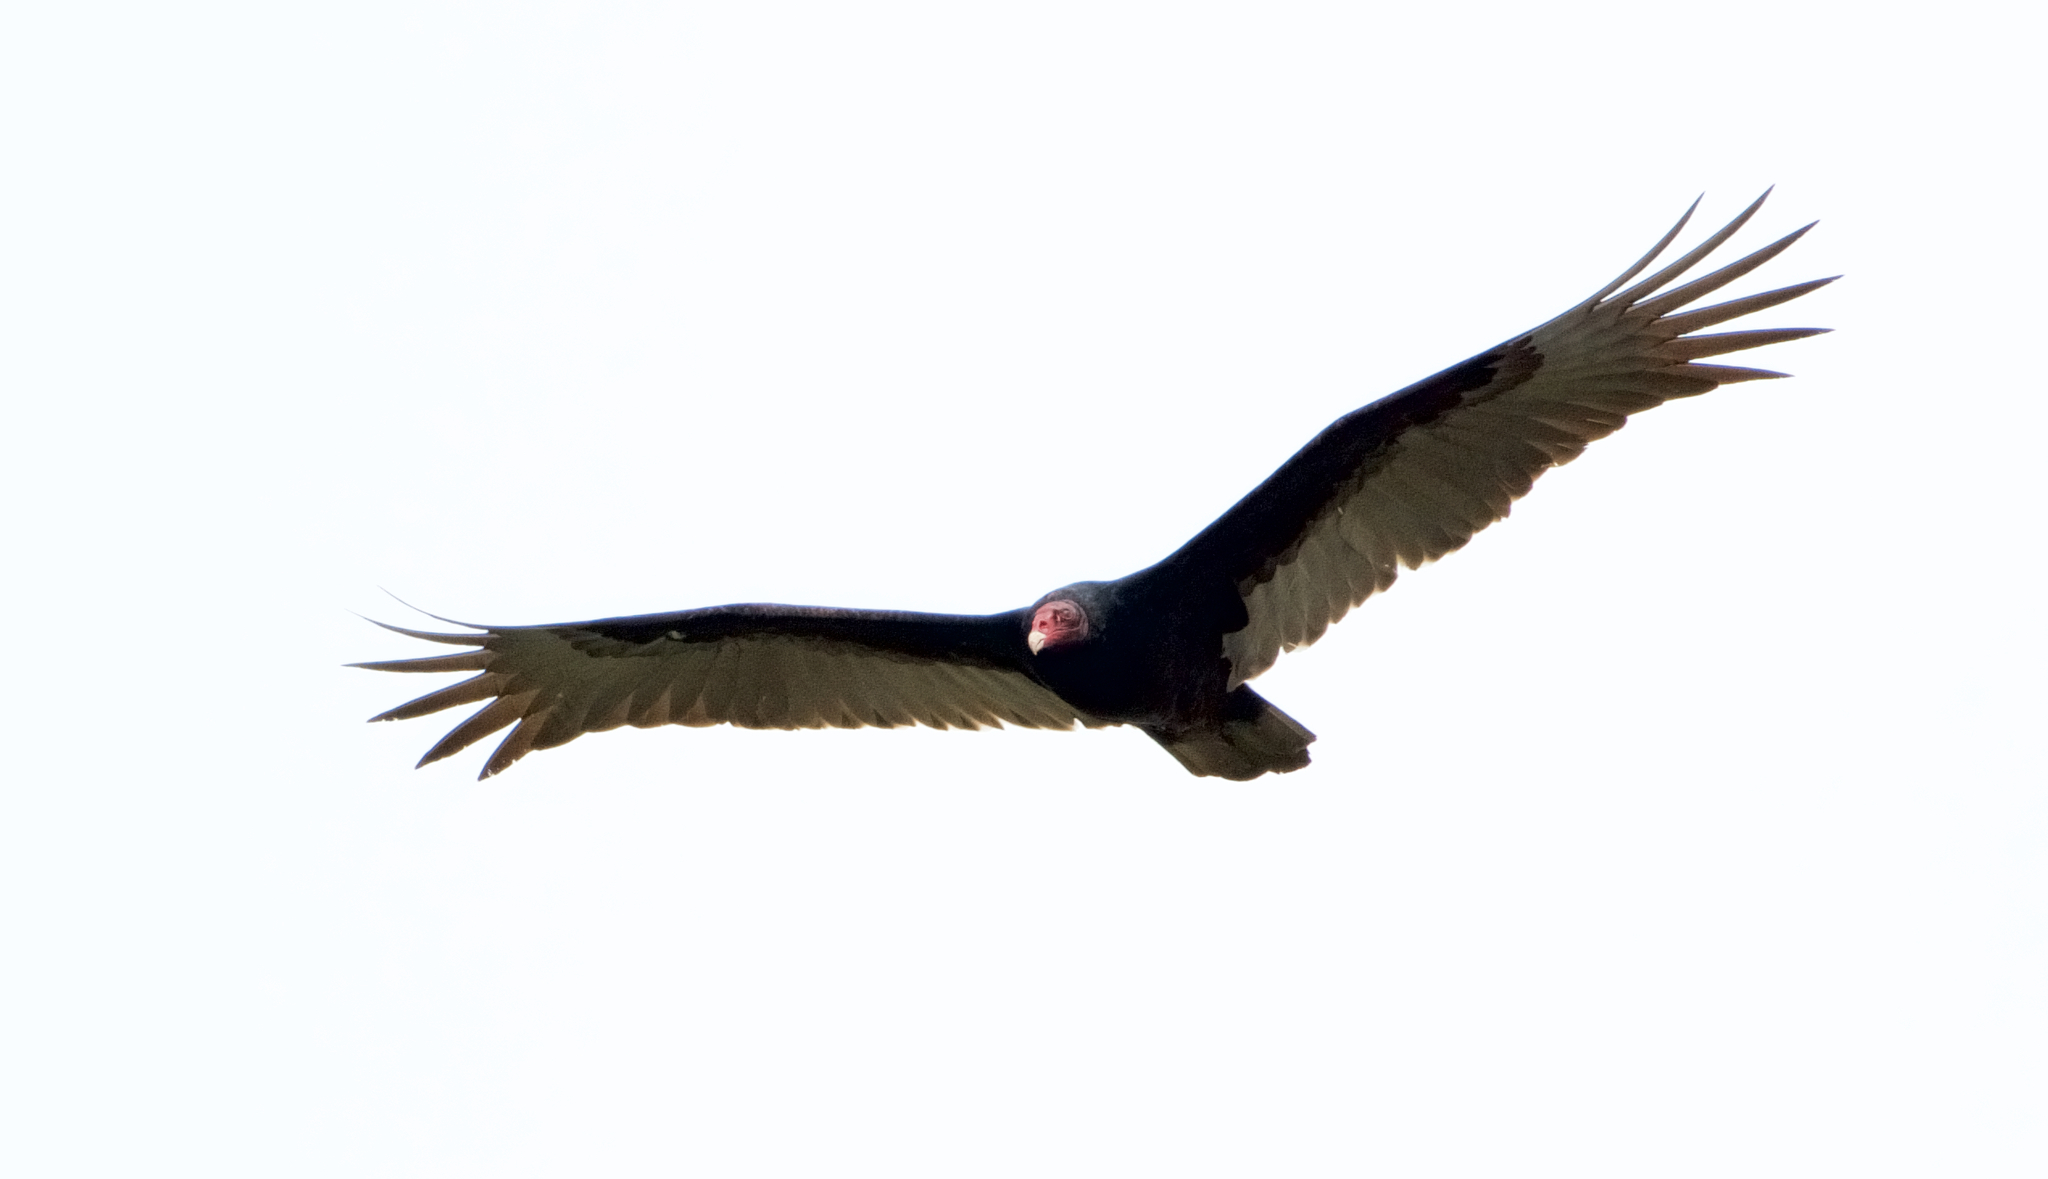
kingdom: Animalia
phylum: Chordata
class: Aves
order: Accipitriformes
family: Cathartidae
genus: Cathartes
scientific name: Cathartes aura
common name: Turkey vulture
